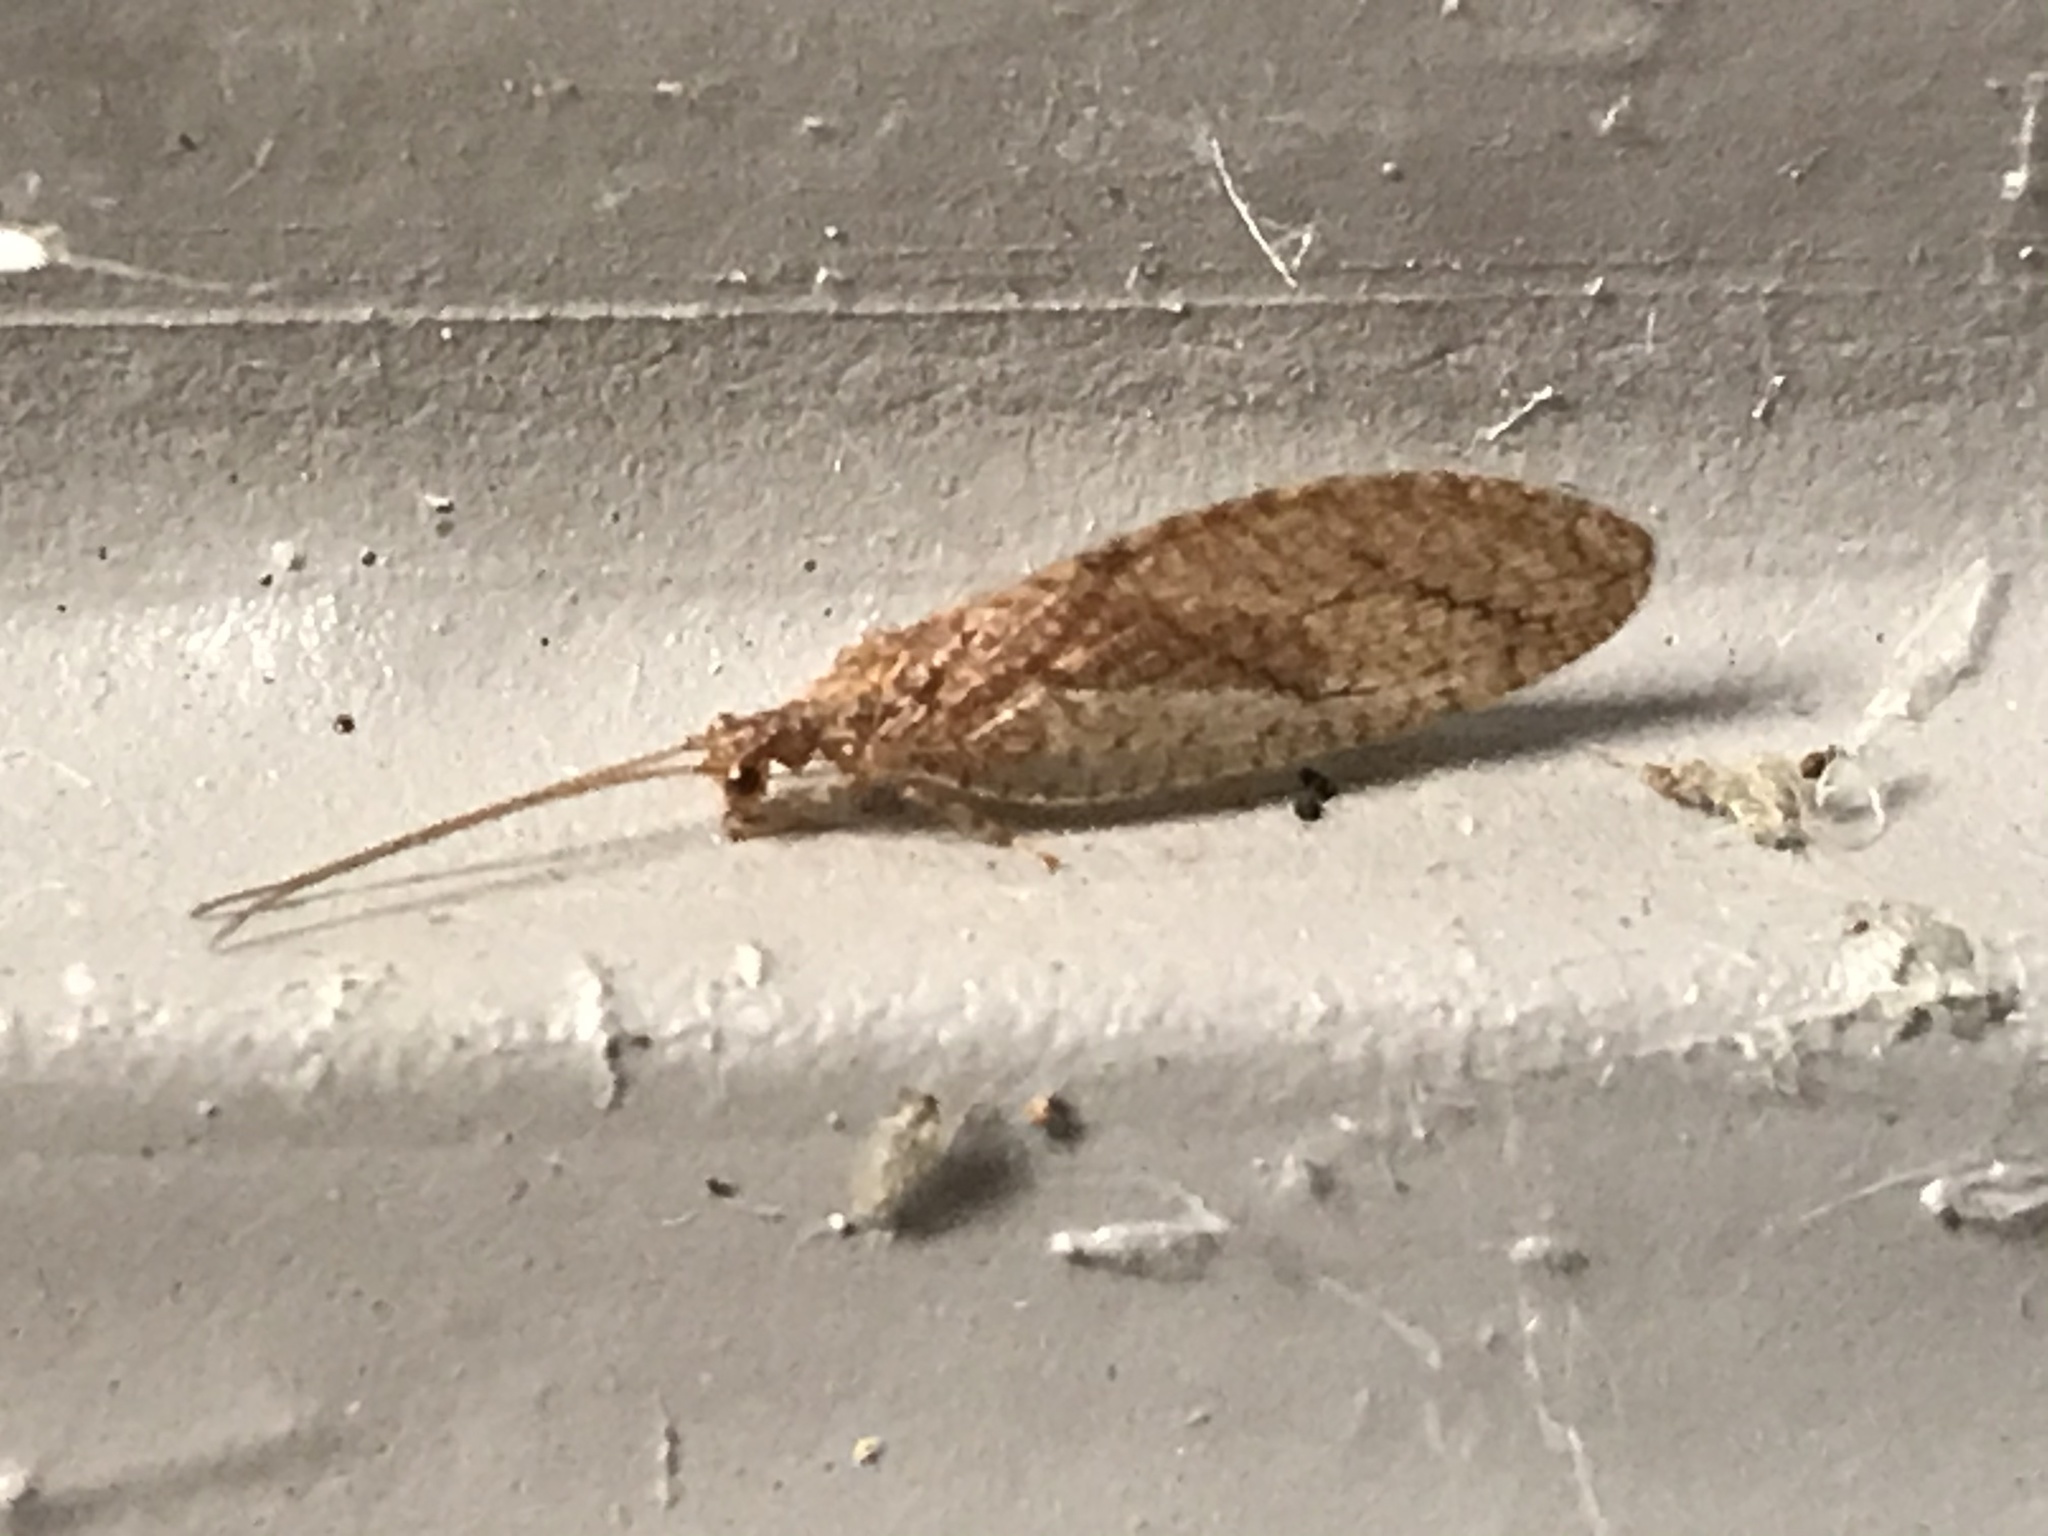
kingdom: Animalia
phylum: Arthropoda
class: Insecta
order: Neuroptera
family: Hemerobiidae
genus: Micromus
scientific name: Micromus posticus
